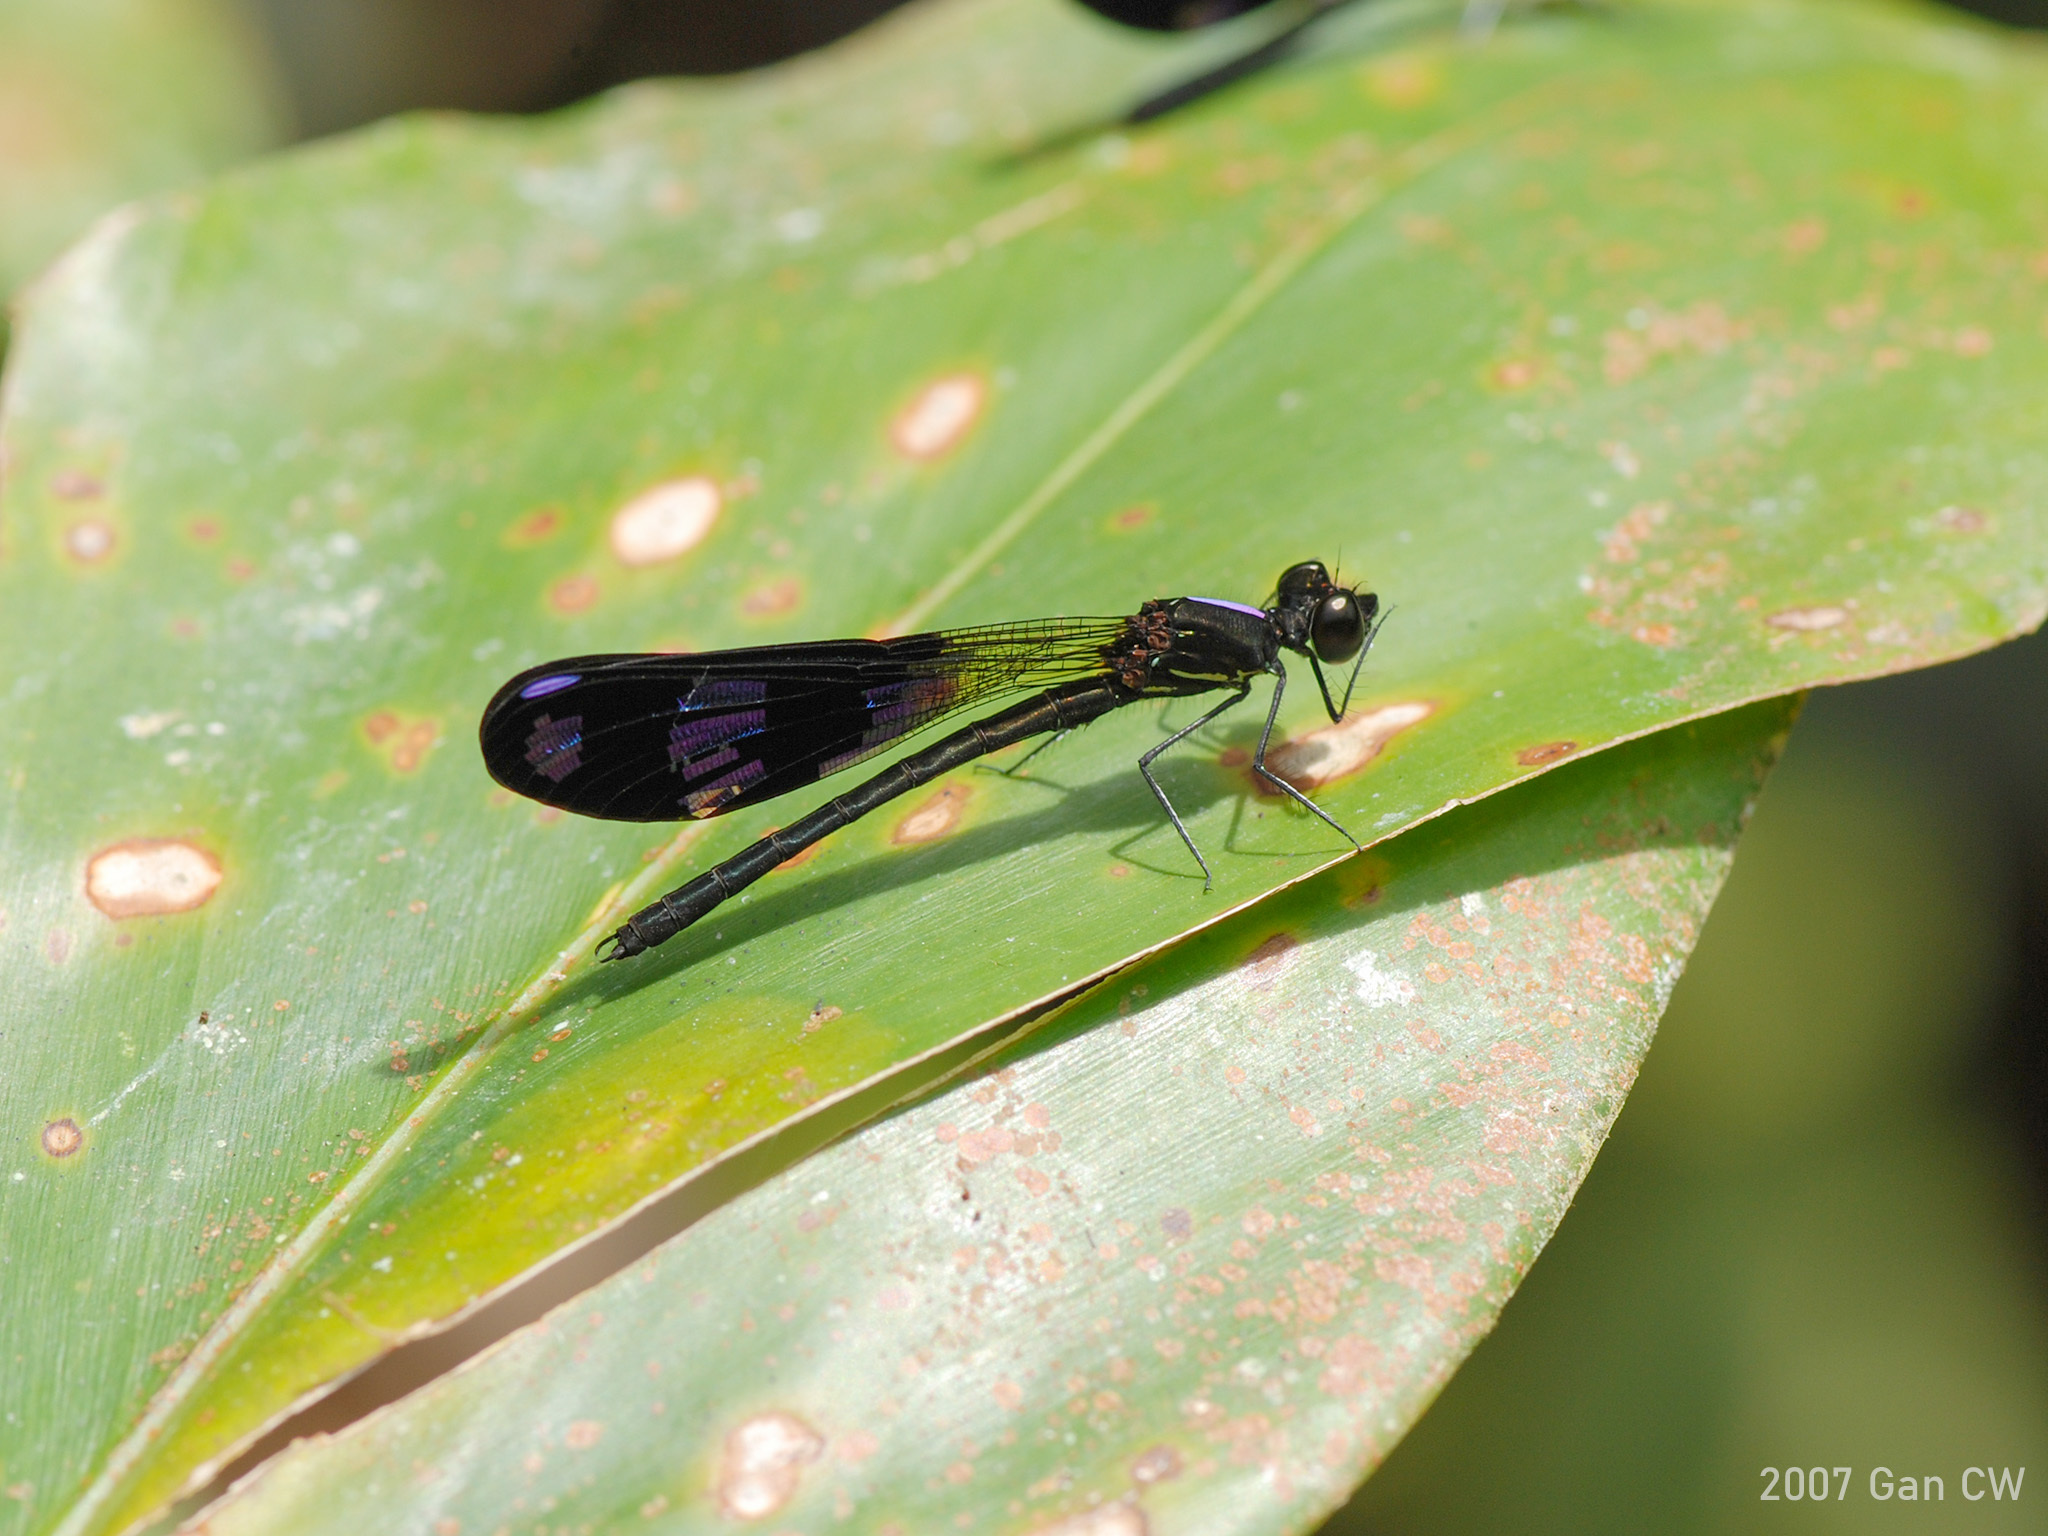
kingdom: Animalia
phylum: Arthropoda
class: Insecta
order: Odonata
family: Chlorocyphidae
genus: Aristocypha
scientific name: Aristocypha fenestrella
